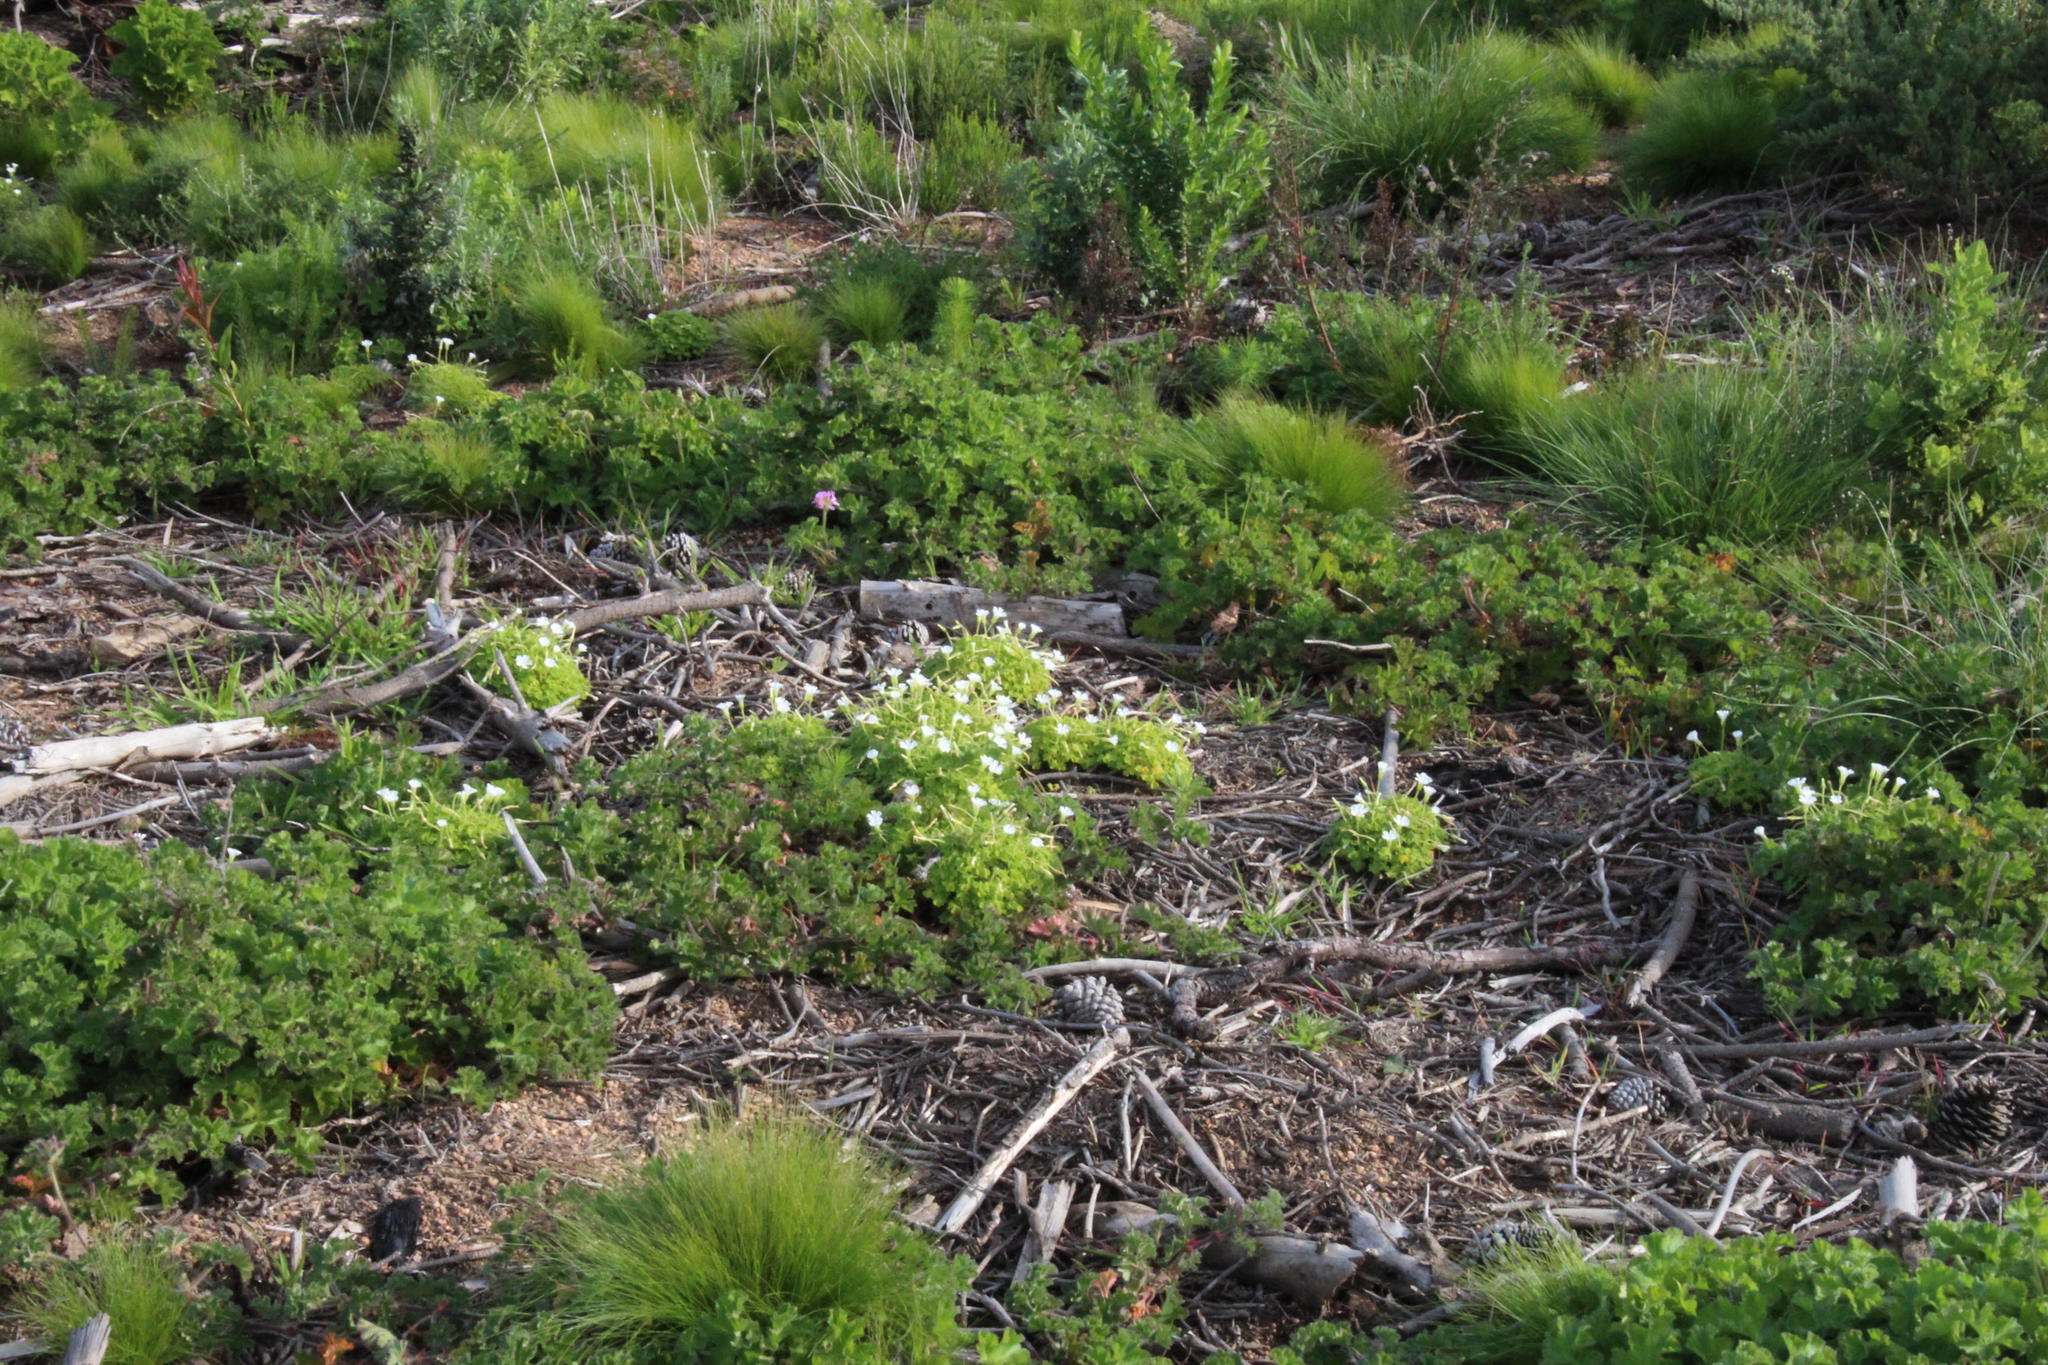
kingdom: Plantae
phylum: Tracheophyta
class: Magnoliopsida
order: Oxalidales
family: Oxalidaceae
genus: Oxalis
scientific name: Oxalis lanata
